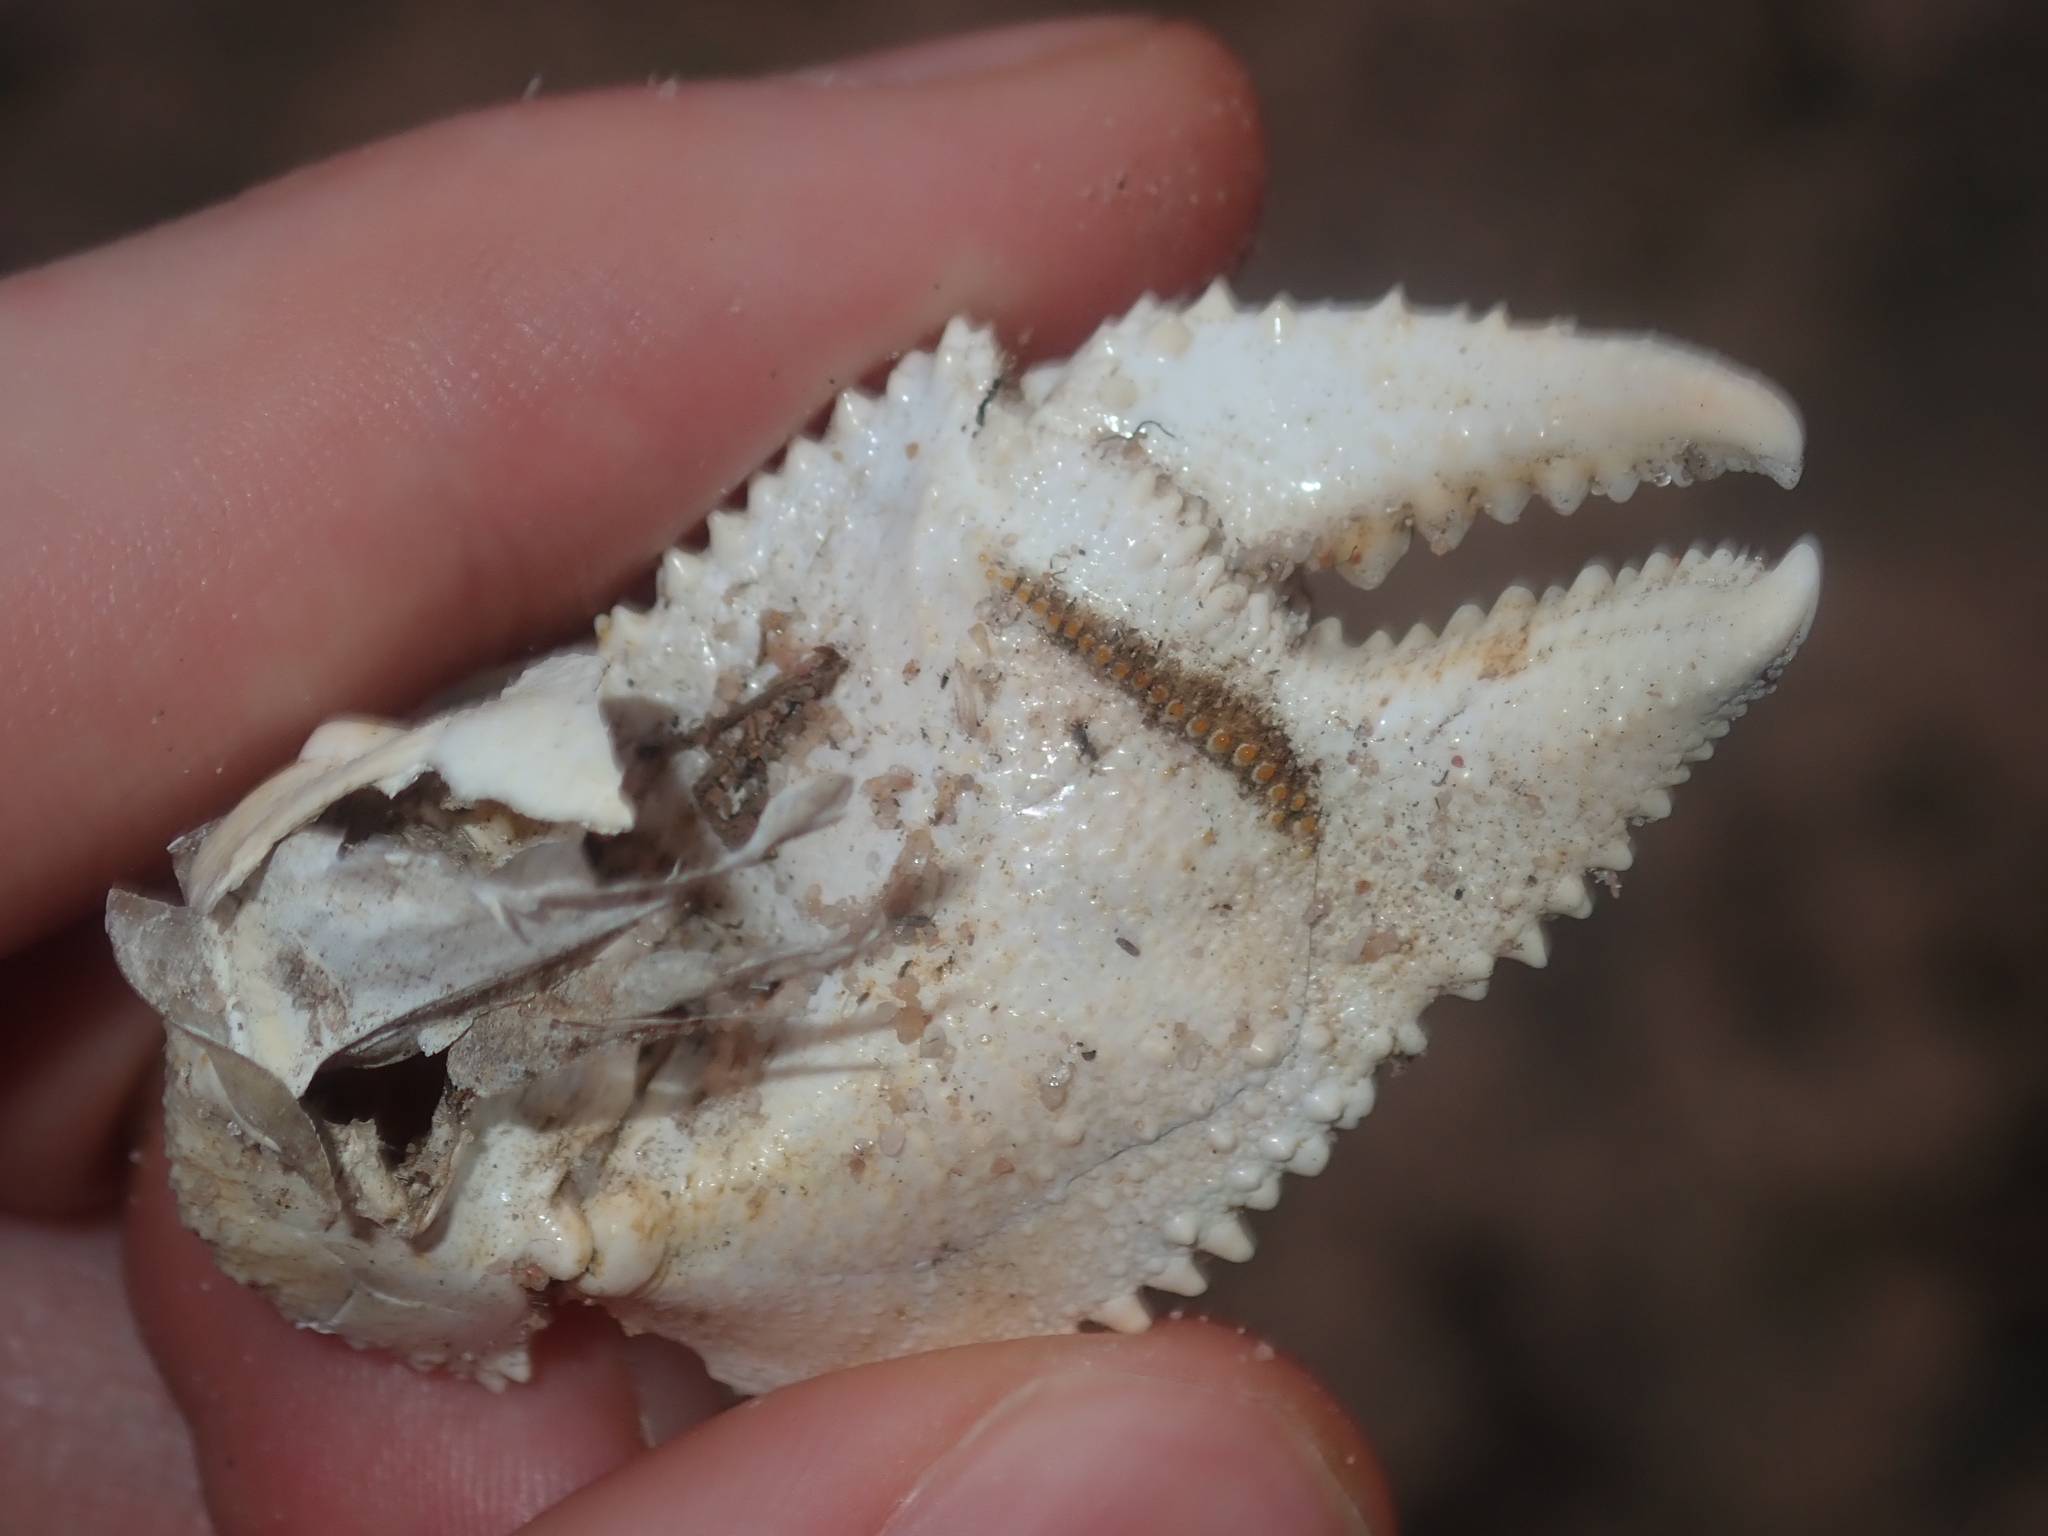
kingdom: Animalia
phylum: Arthropoda
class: Malacostraca
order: Decapoda
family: Ocypodidae
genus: Ocypode
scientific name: Ocypode convexa
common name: Golden ghost crab
